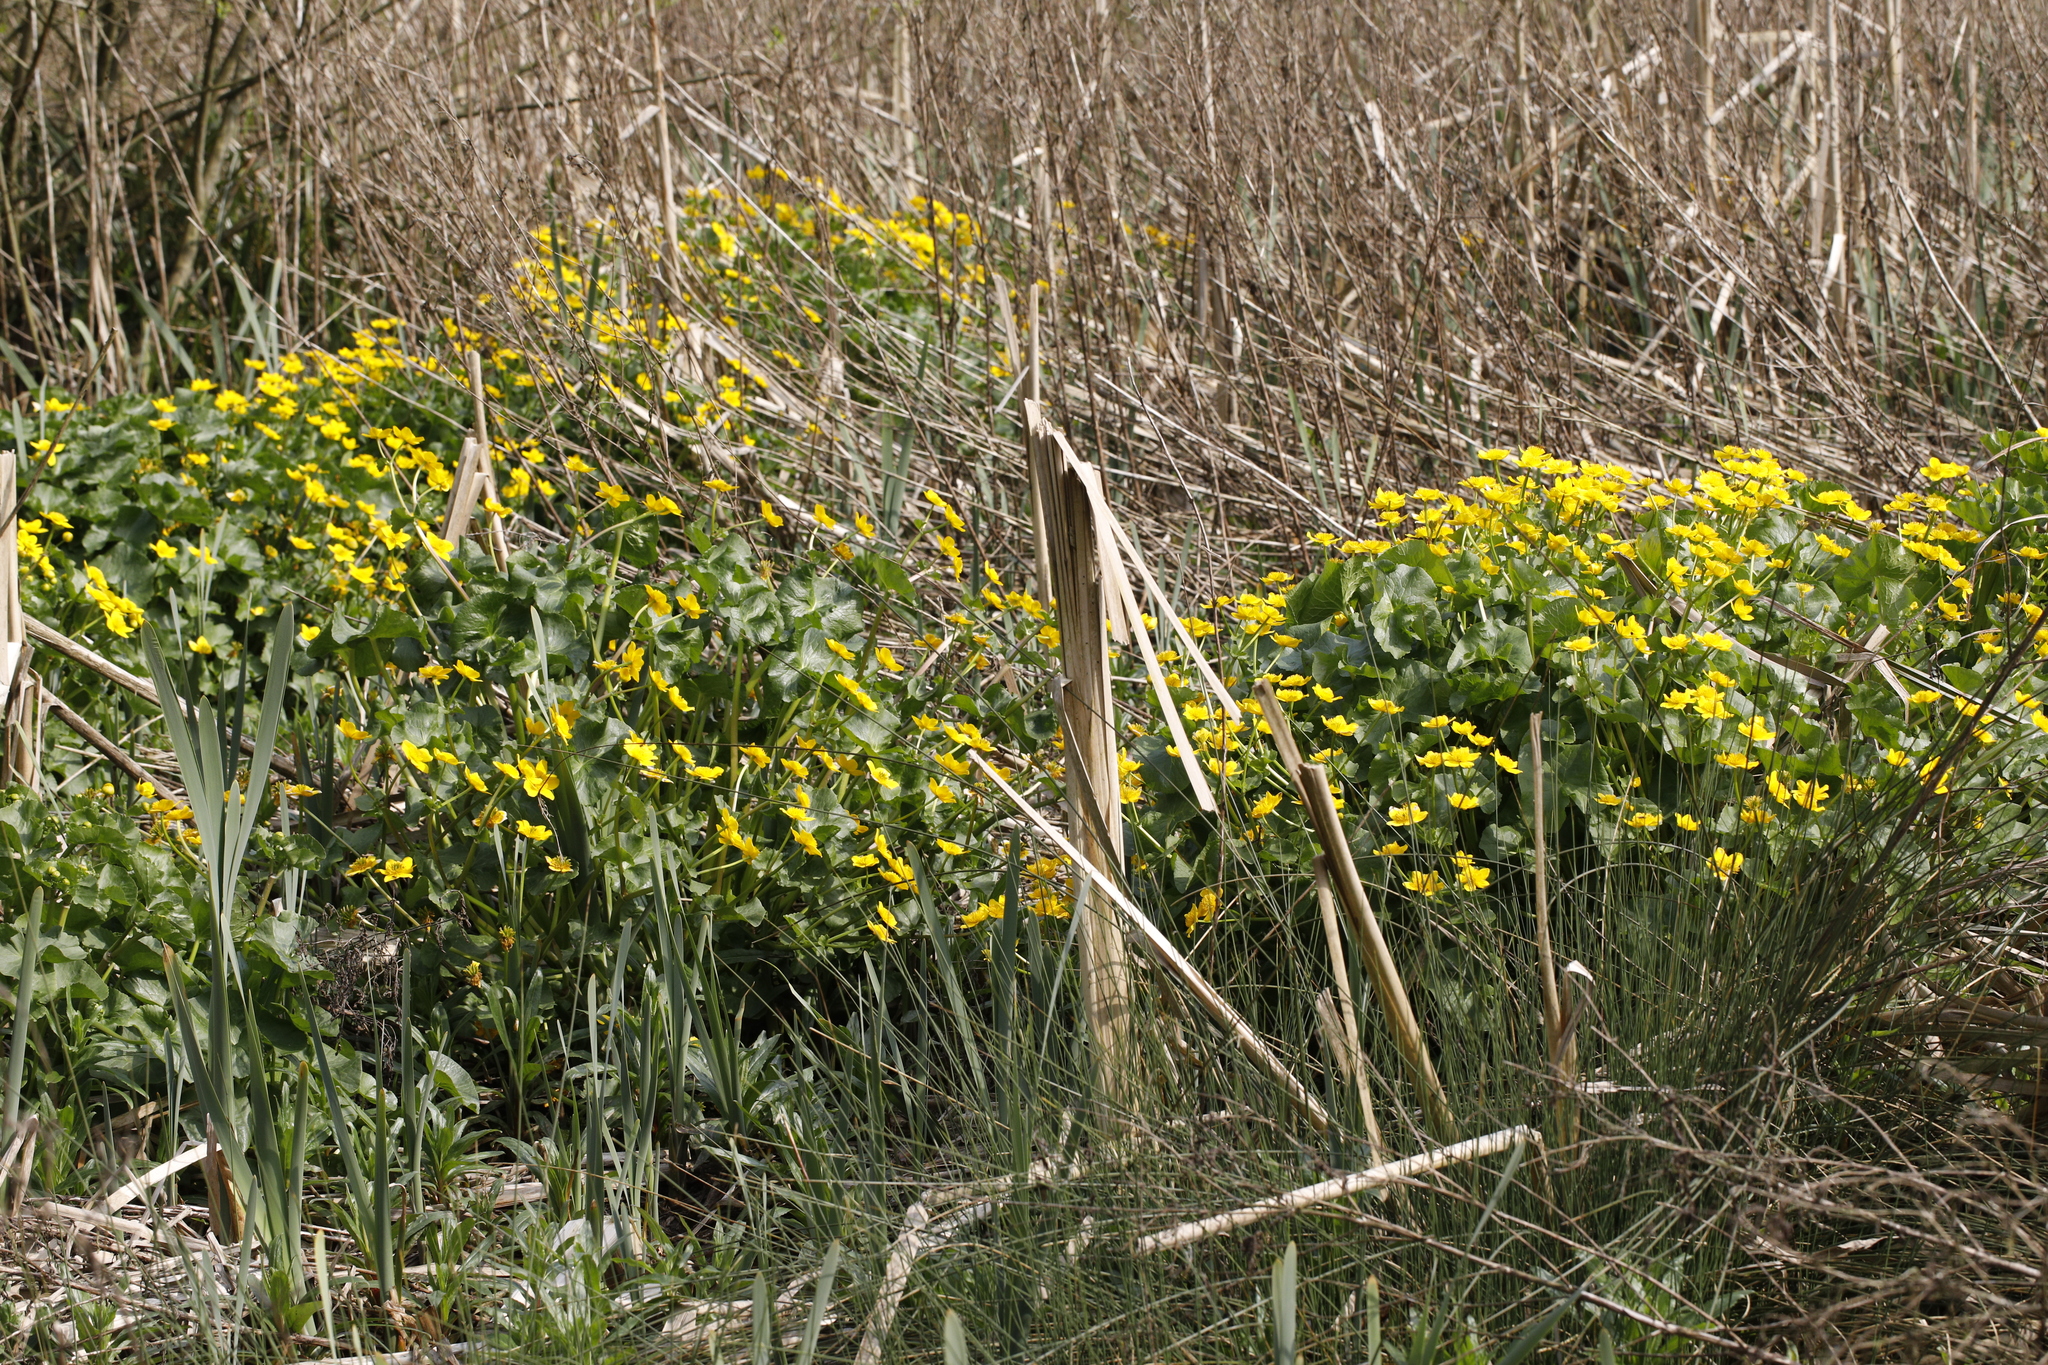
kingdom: Plantae
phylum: Tracheophyta
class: Magnoliopsida
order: Ranunculales
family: Ranunculaceae
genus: Caltha
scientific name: Caltha palustris
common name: Marsh marigold
